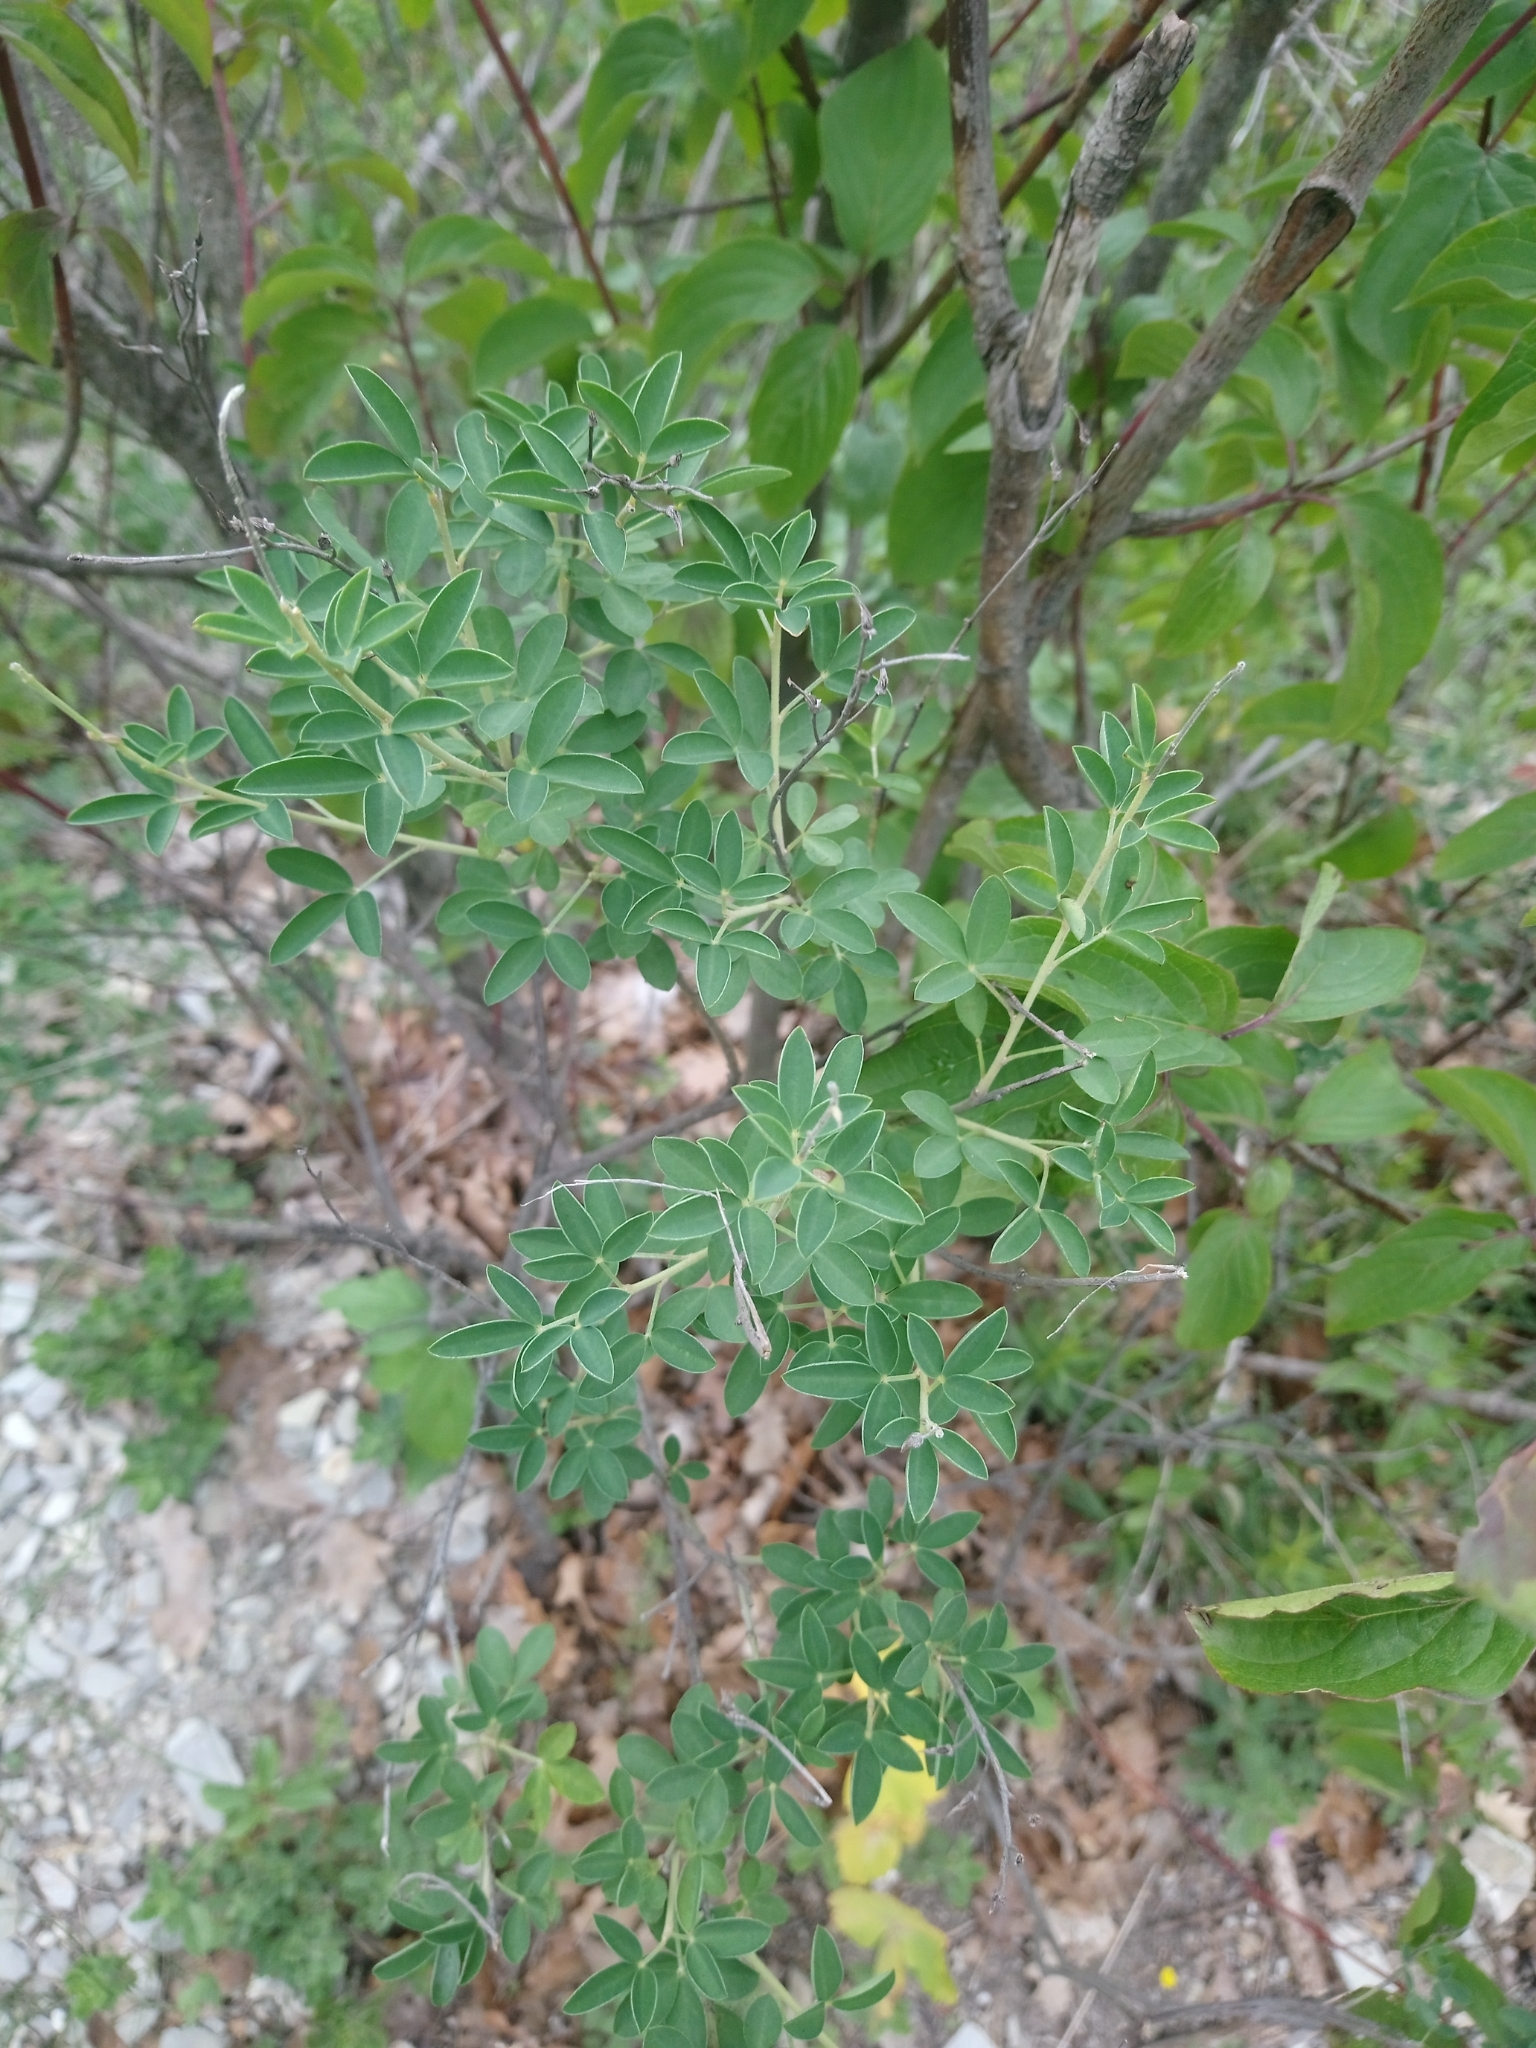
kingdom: Plantae
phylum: Tracheophyta
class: Magnoliopsida
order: Fabales
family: Fabaceae
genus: Cytisus
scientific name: Cytisus nigricans
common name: Black broom
